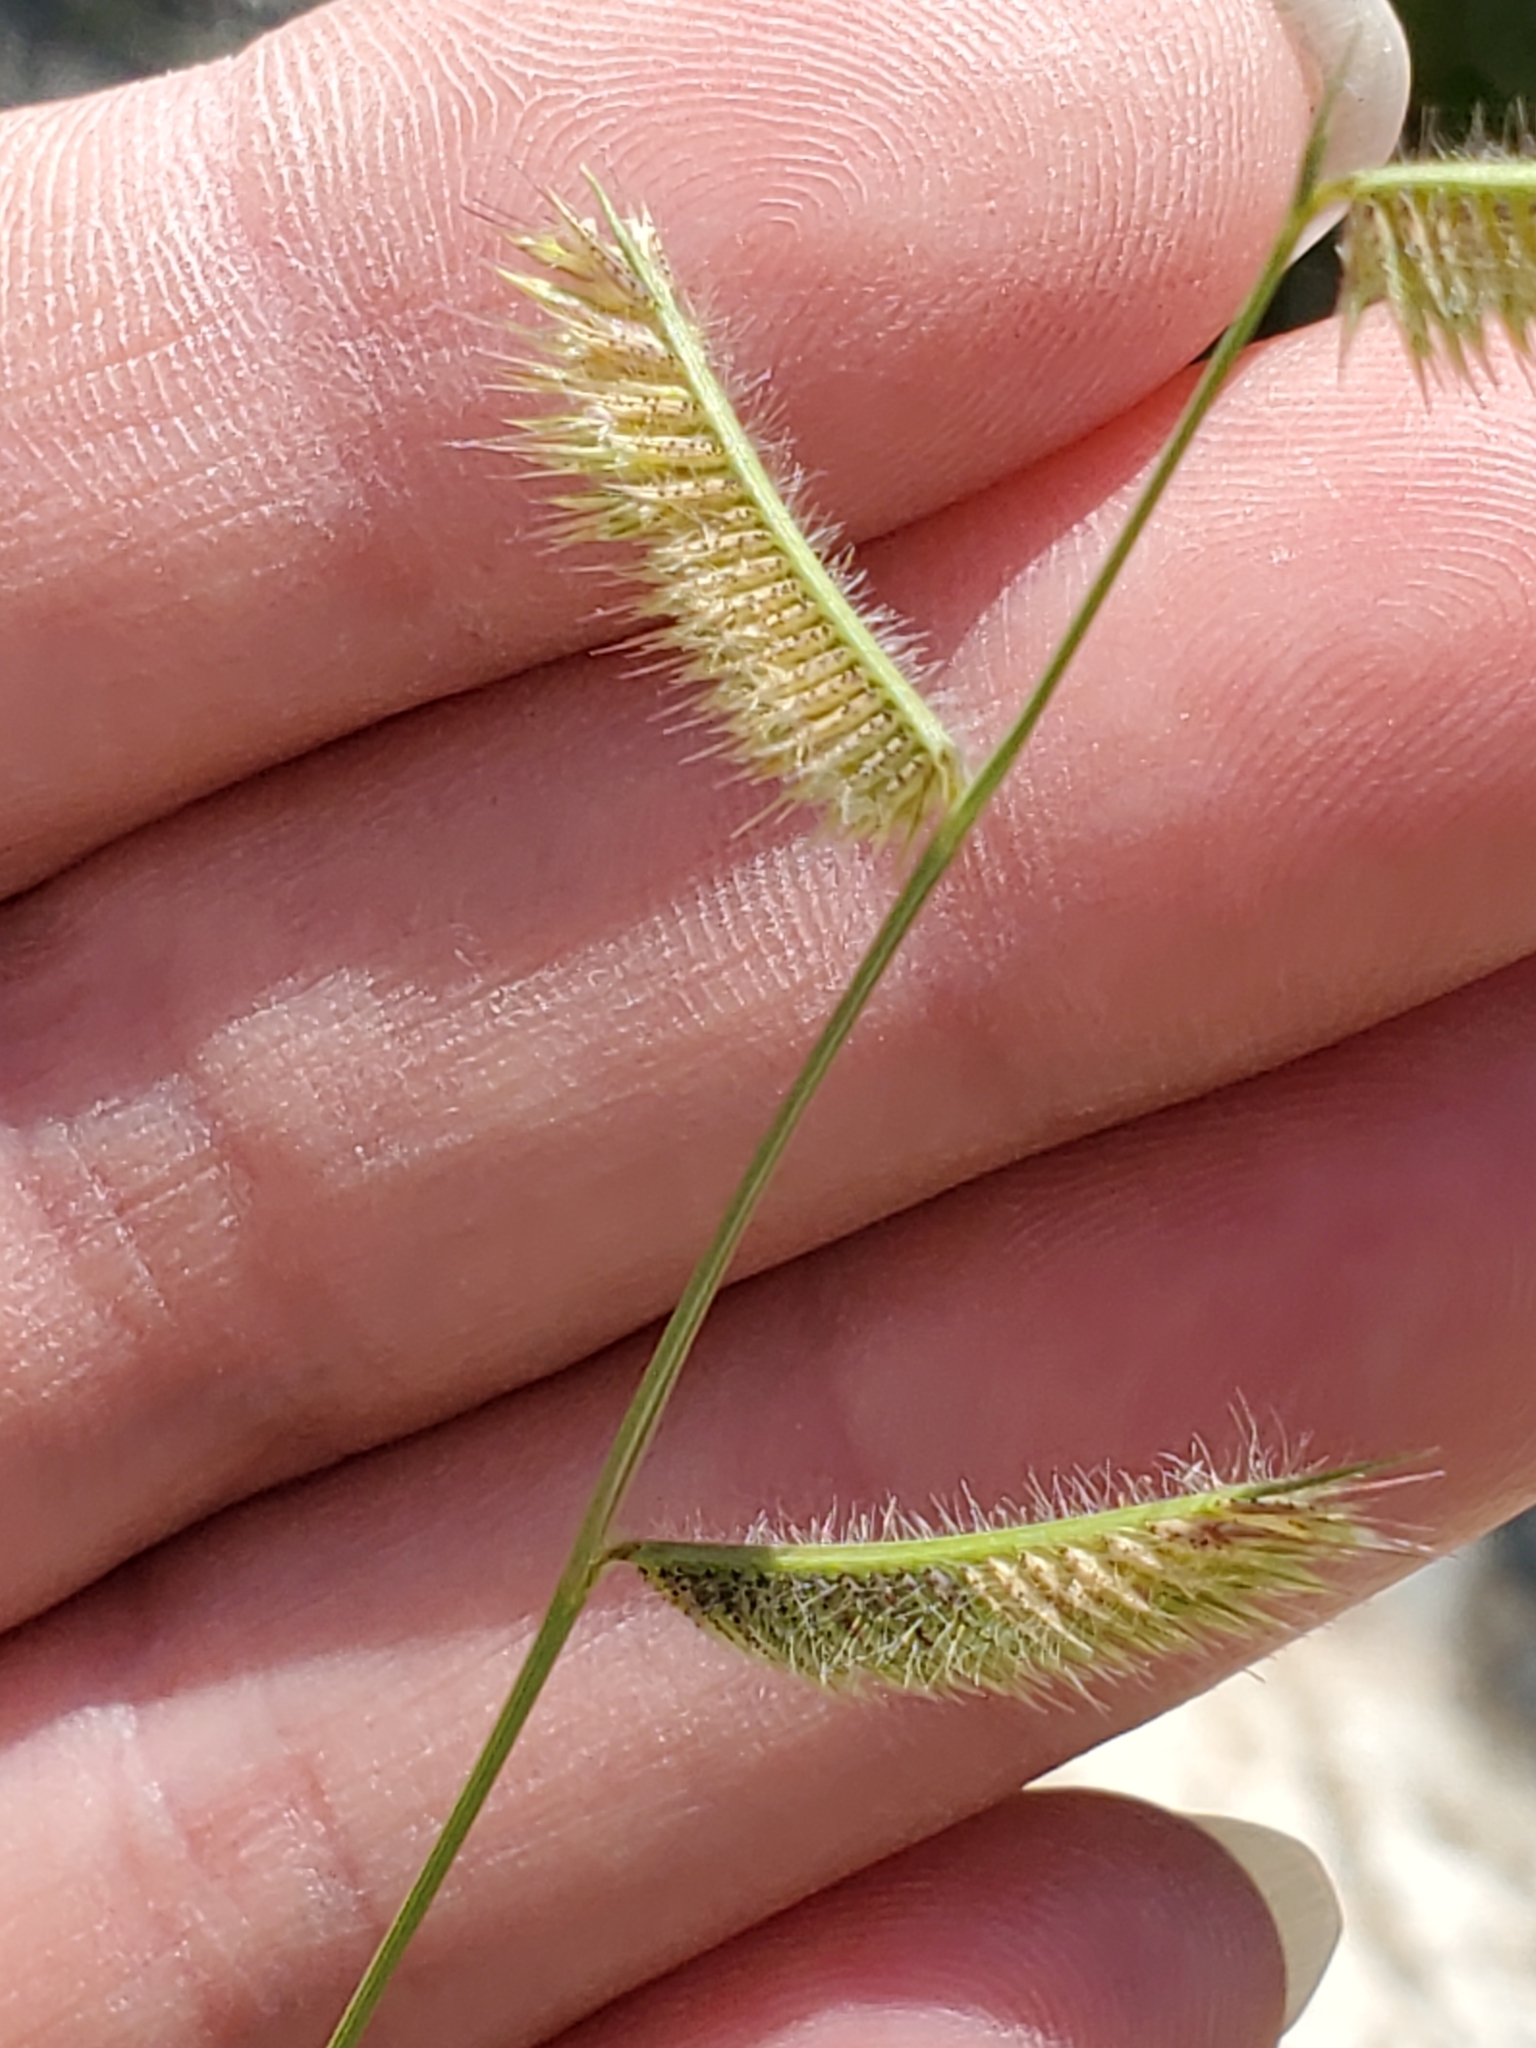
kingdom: Plantae
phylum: Tracheophyta
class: Liliopsida
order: Poales
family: Poaceae
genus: Bouteloua
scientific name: Bouteloua hirsuta
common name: Hairy grama
